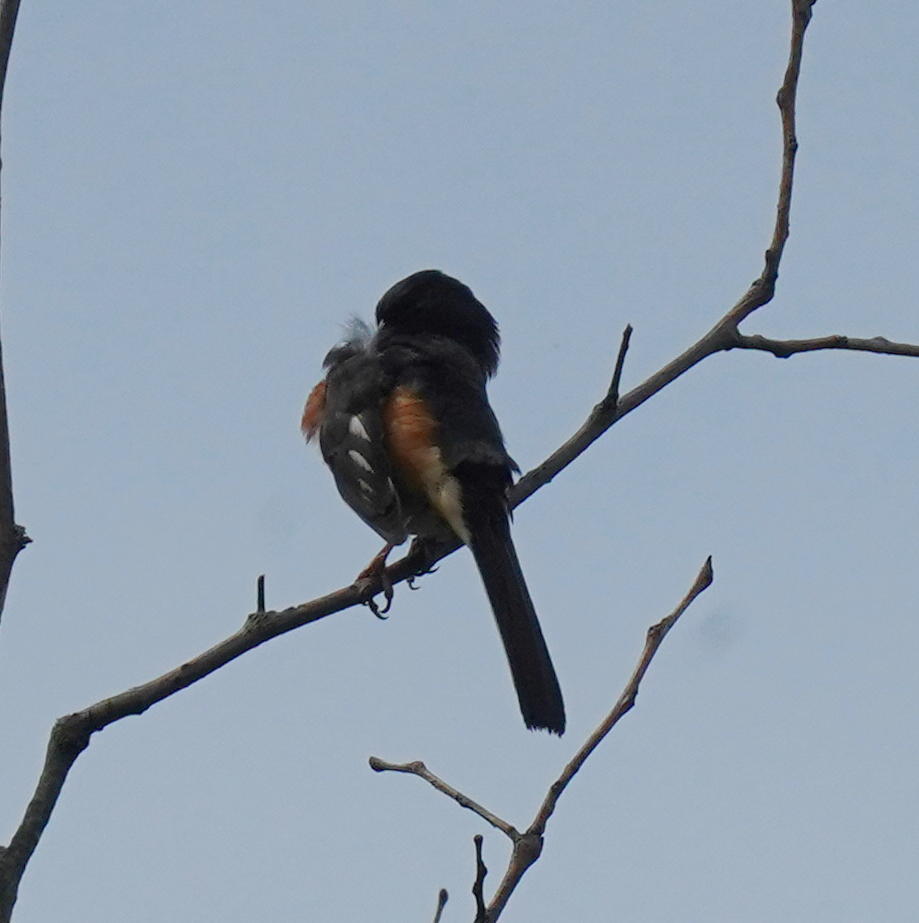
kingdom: Animalia
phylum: Chordata
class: Aves
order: Passeriformes
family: Passerellidae
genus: Pipilo
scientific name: Pipilo erythrophthalmus
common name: Eastern towhee
